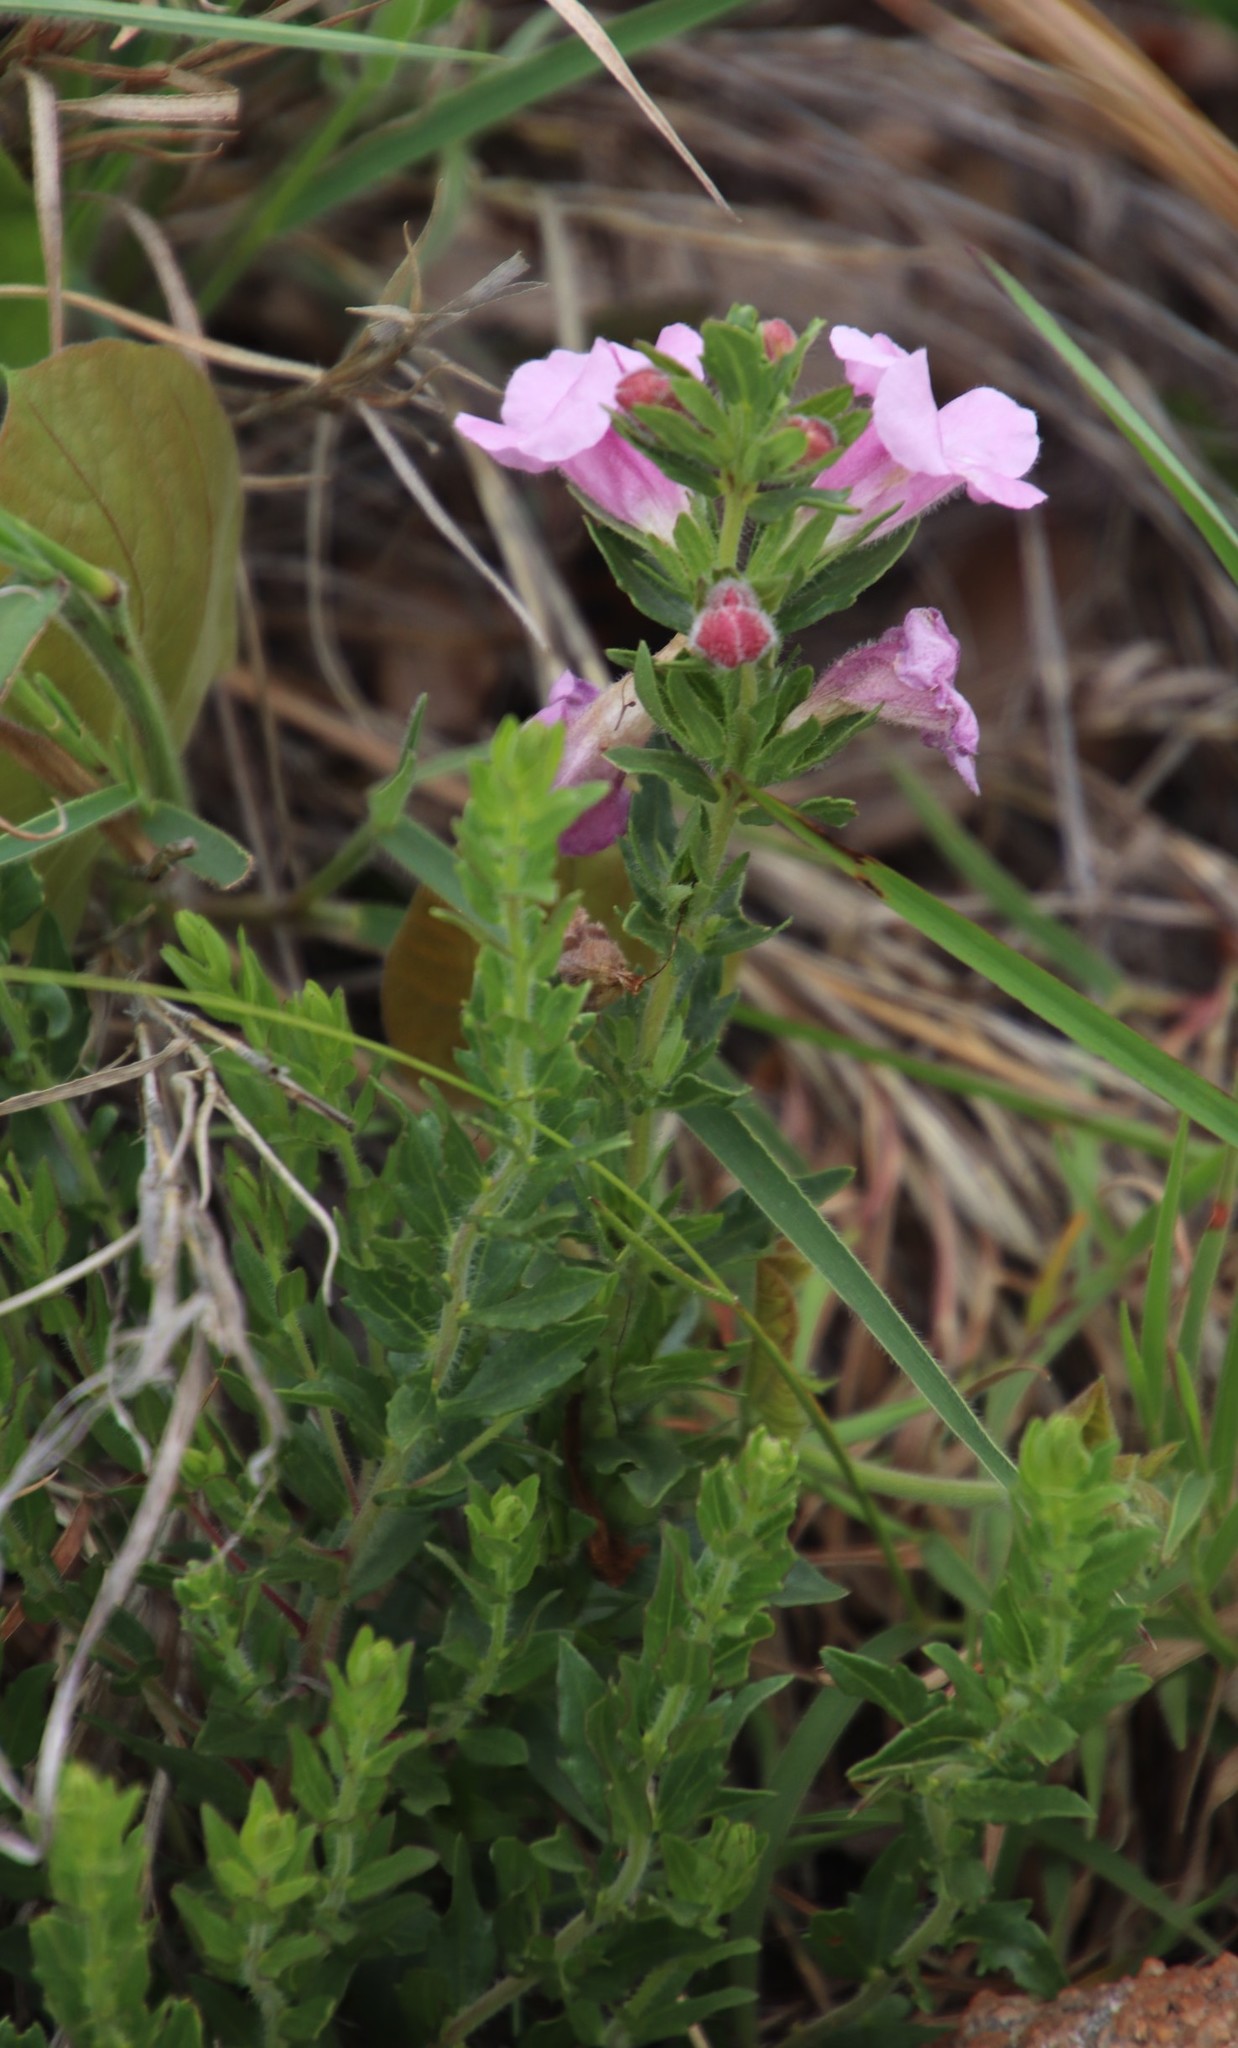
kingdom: Plantae
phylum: Tracheophyta
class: Magnoliopsida
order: Lamiales
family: Orobanchaceae
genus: Graderia
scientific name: Graderia subintegra
